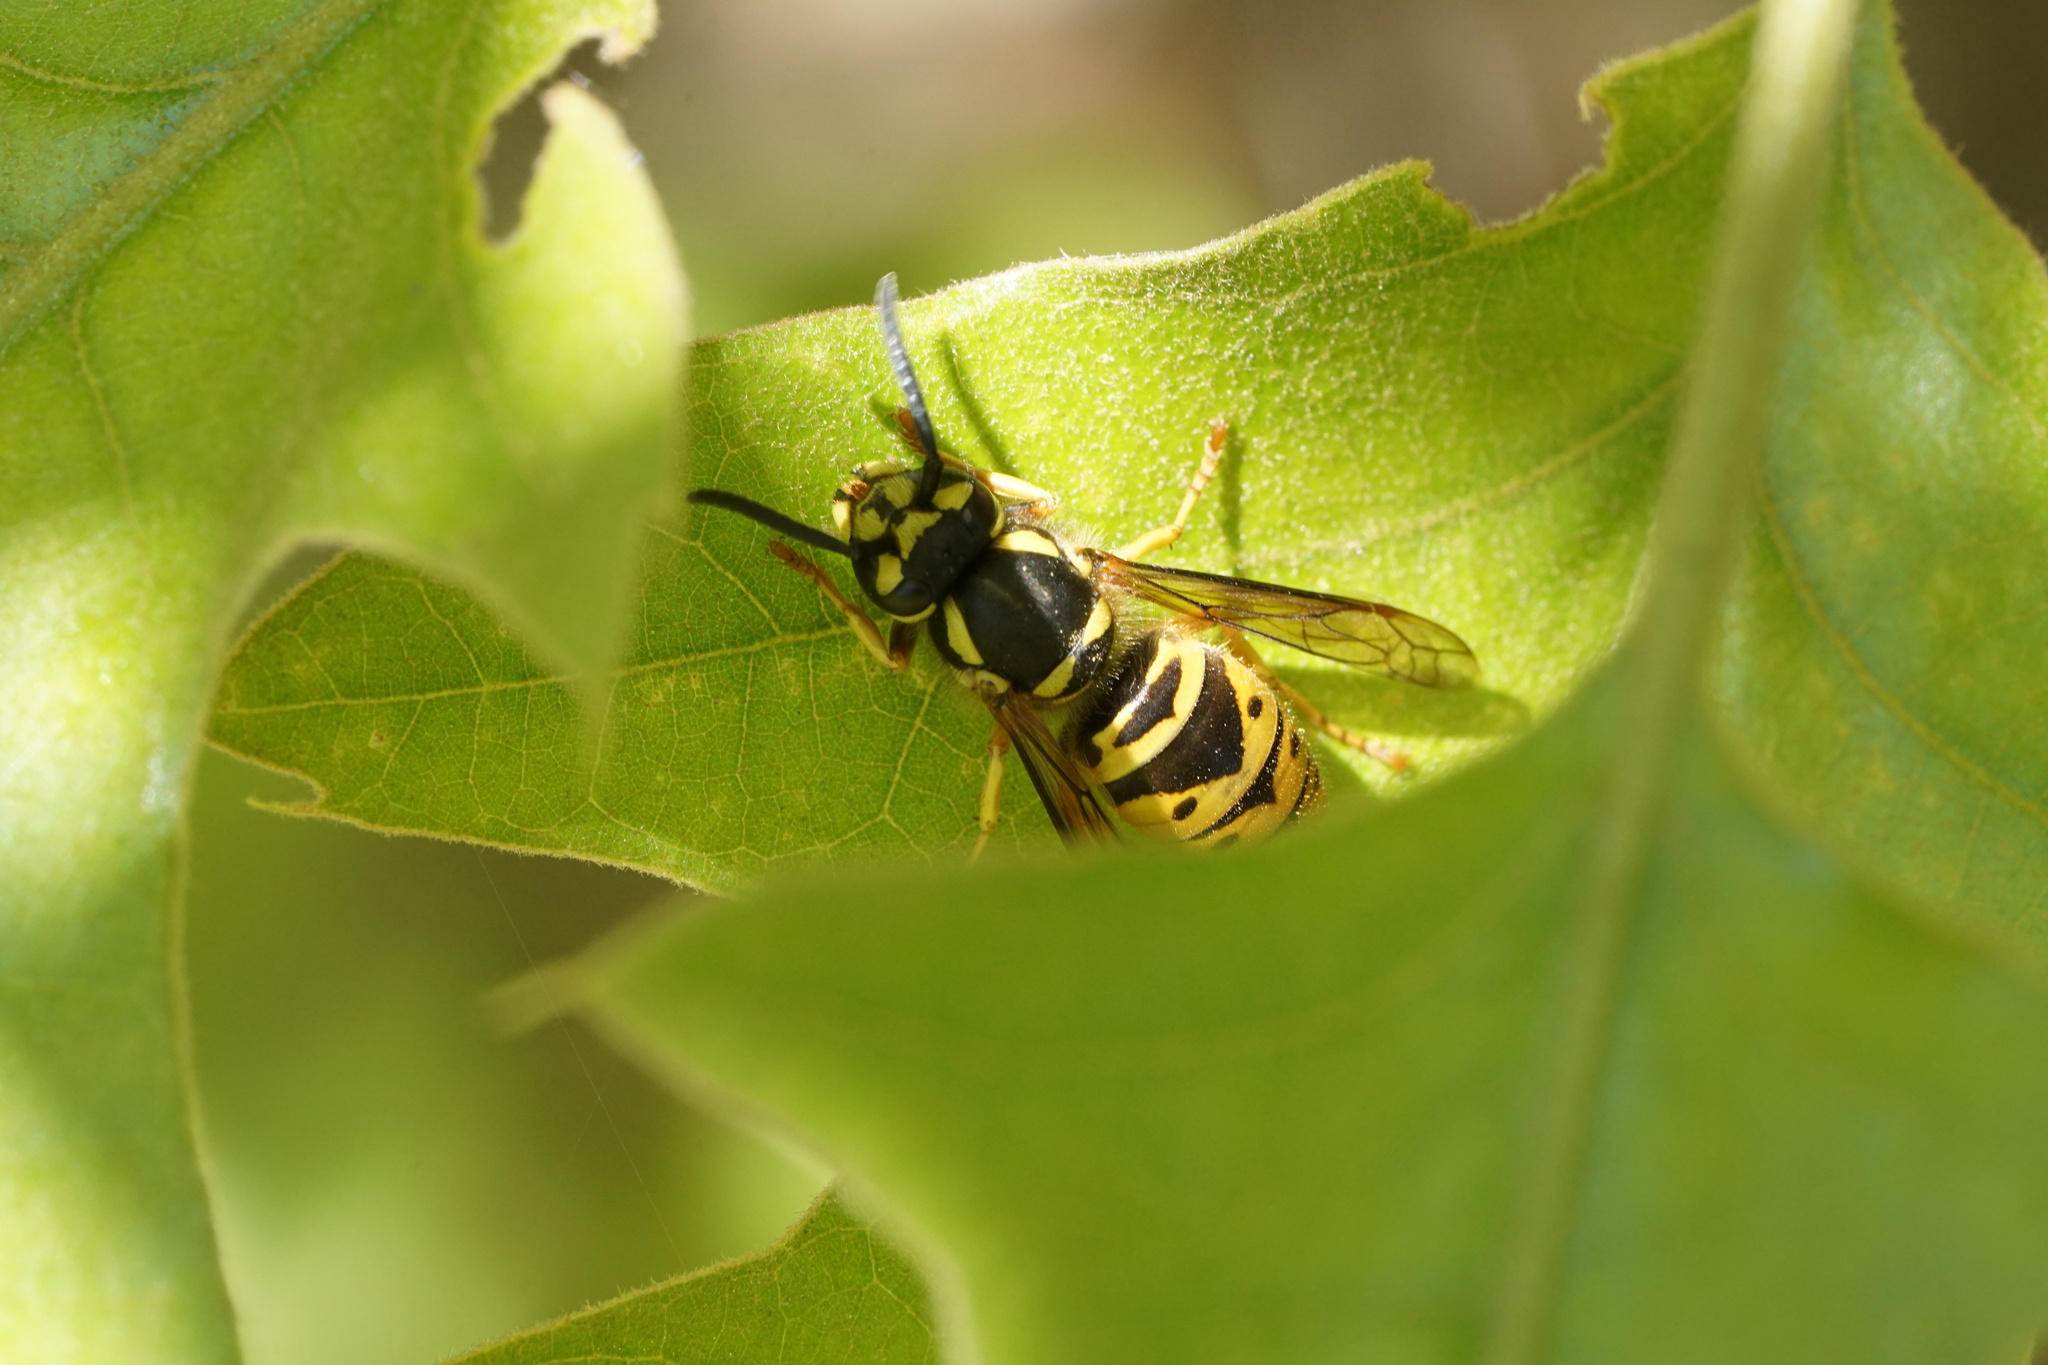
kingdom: Animalia
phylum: Arthropoda
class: Insecta
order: Hymenoptera
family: Vespidae
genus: Vespula
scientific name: Vespula maculifrons
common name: Eastern yellowjacket
